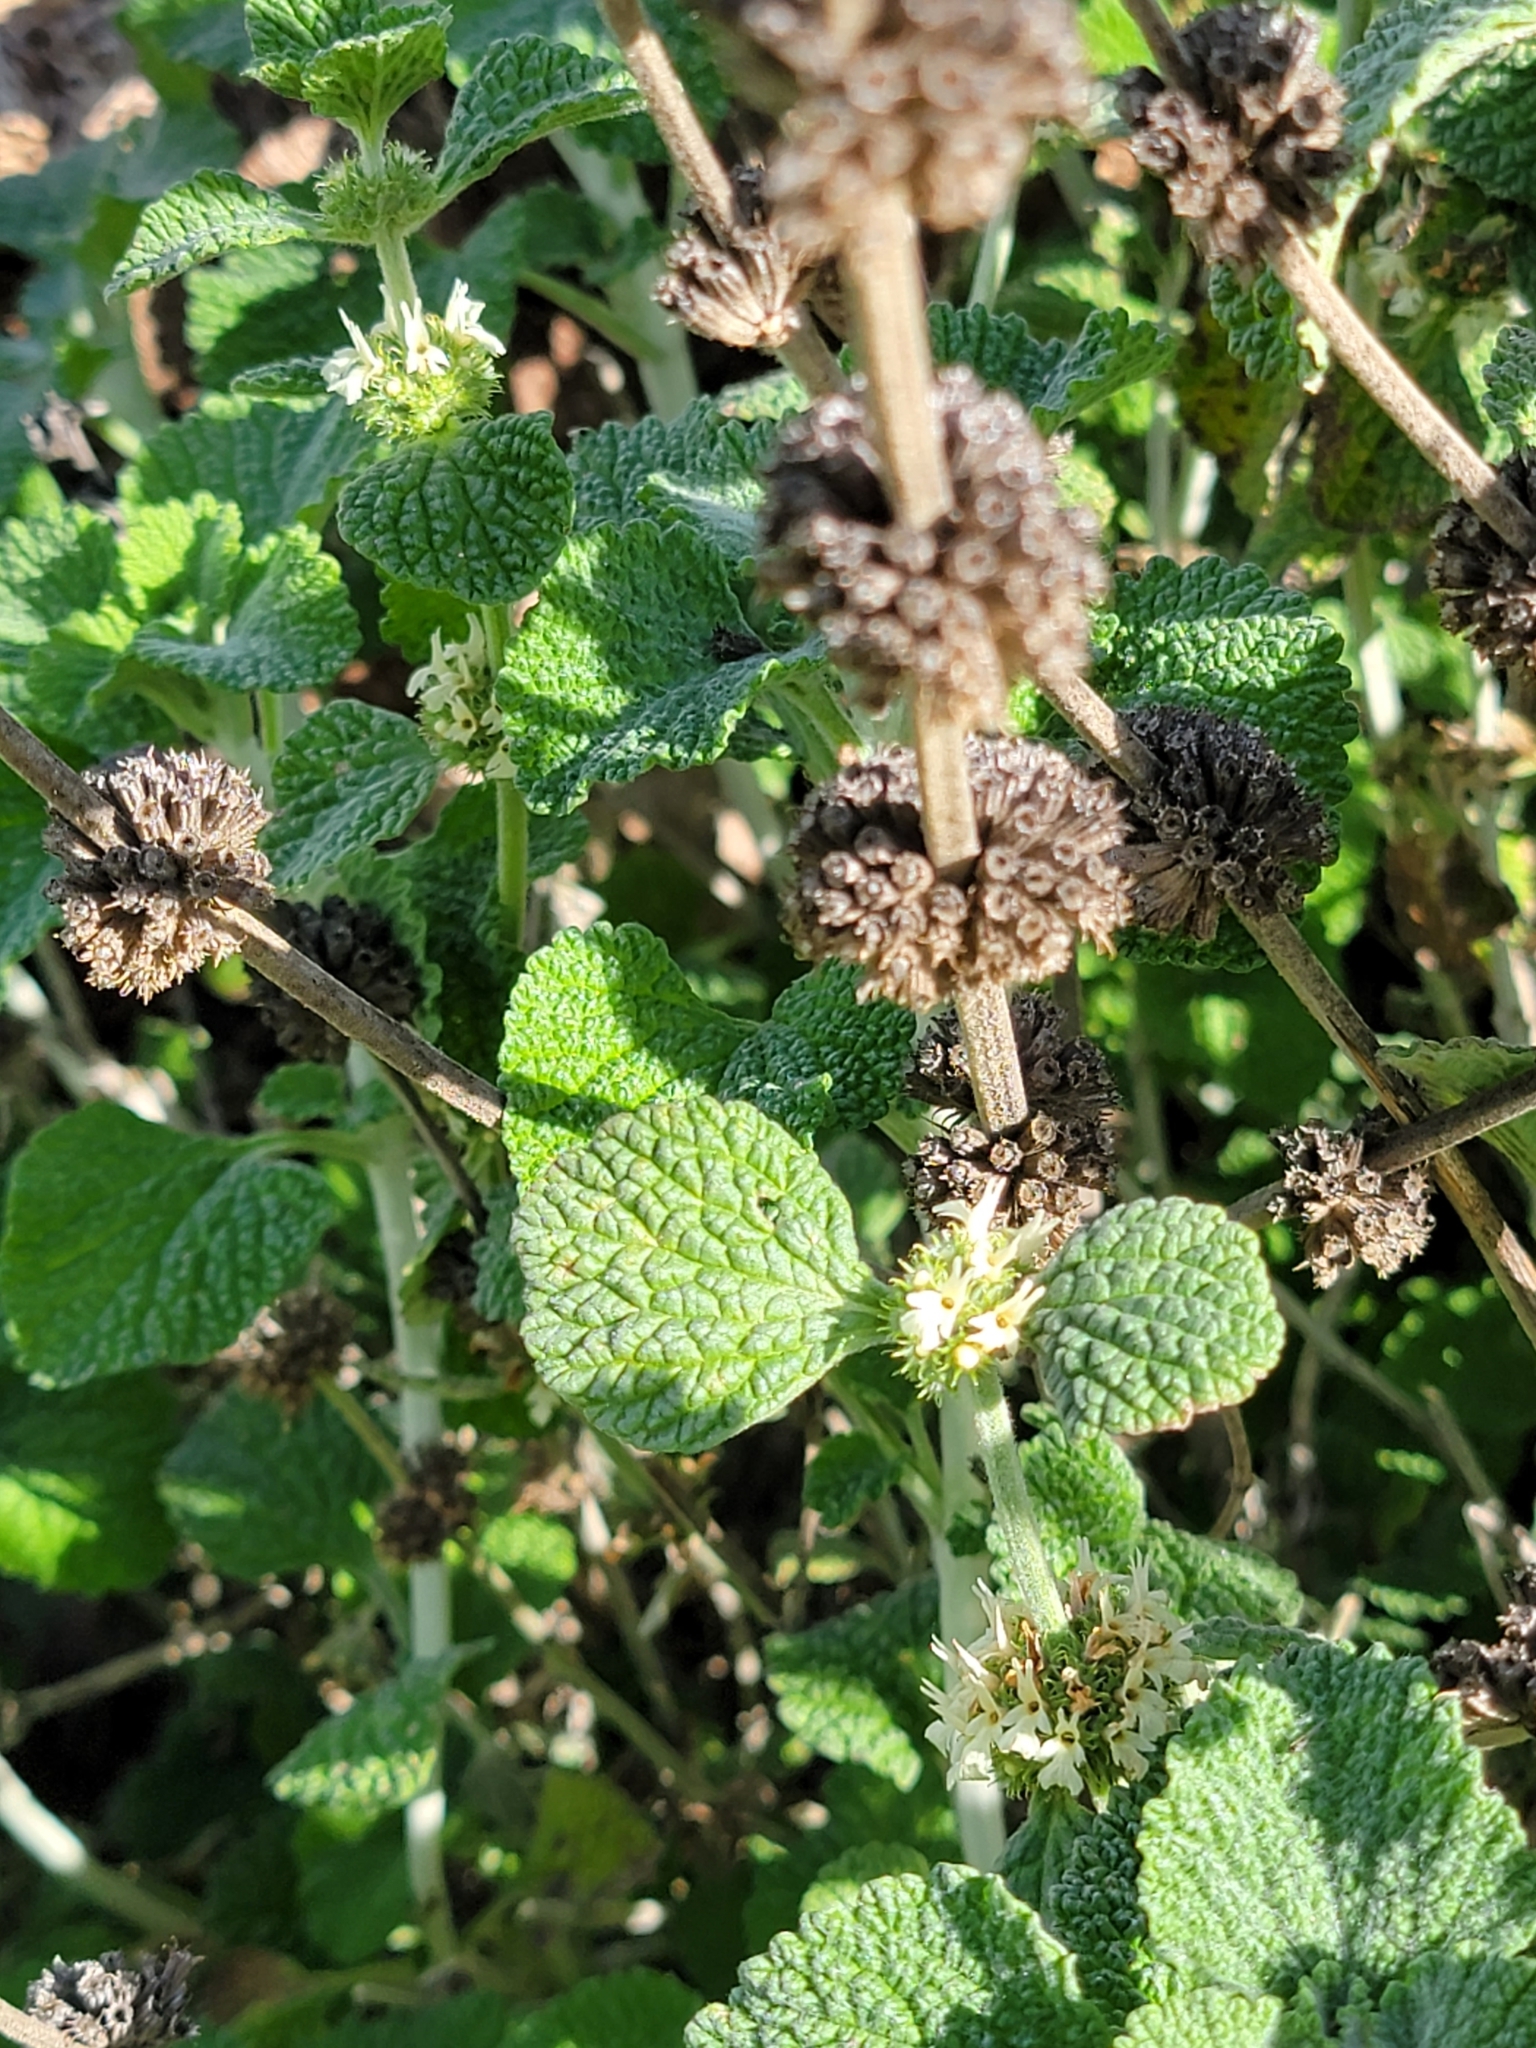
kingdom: Plantae
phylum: Tracheophyta
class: Magnoliopsida
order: Lamiales
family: Lamiaceae
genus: Marrubium
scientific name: Marrubium vulgare
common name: Horehound
